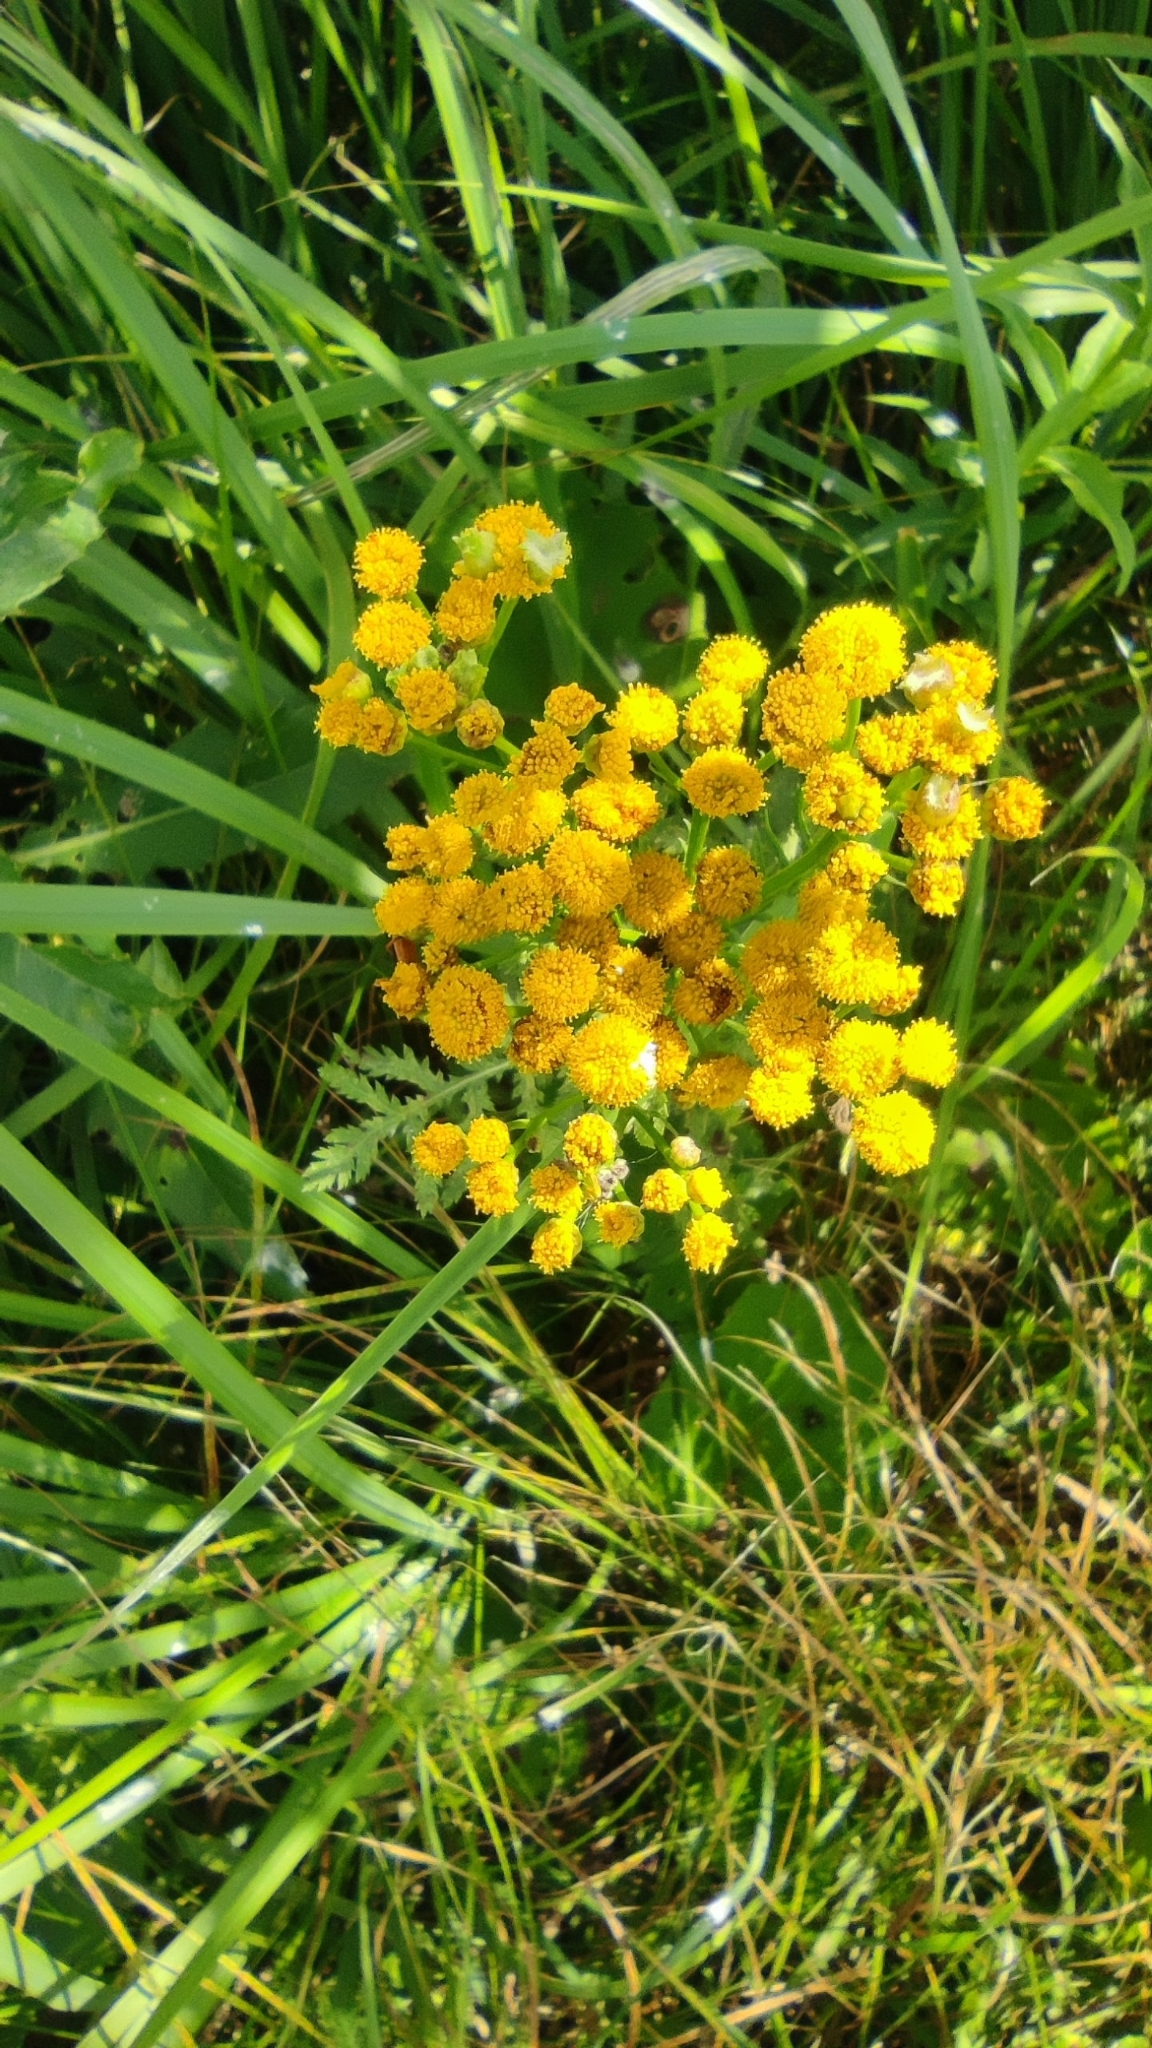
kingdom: Plantae
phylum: Tracheophyta
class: Magnoliopsida
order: Asterales
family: Asteraceae
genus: Tanacetum
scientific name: Tanacetum vulgare
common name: Common tansy
